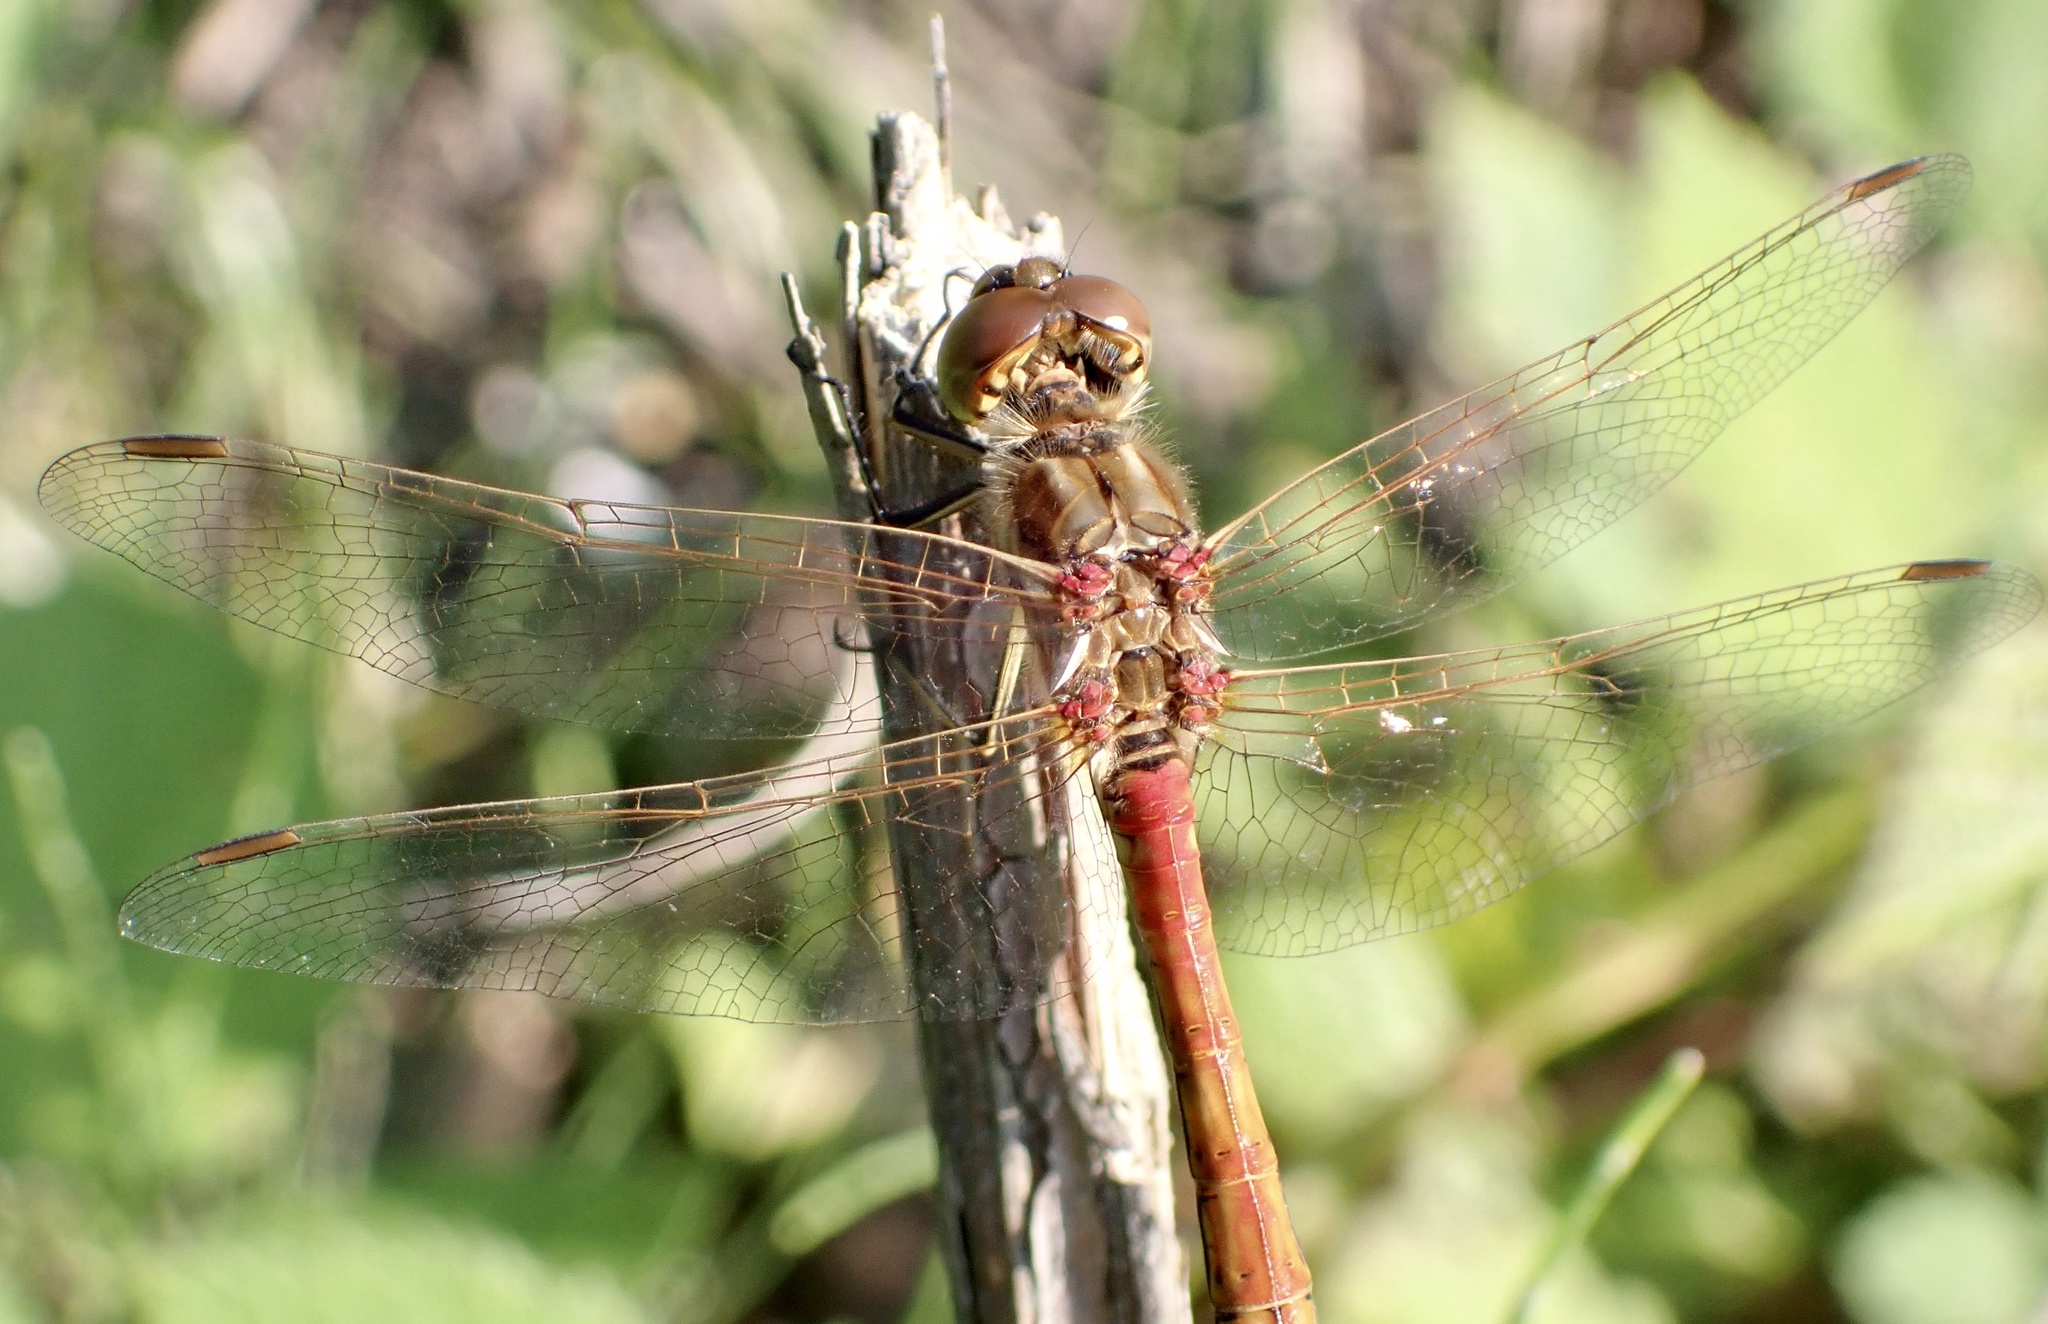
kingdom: Animalia
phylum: Arthropoda
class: Insecta
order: Odonata
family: Libellulidae
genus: Sympetrum
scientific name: Sympetrum vulgatum
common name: Vagrant darter
